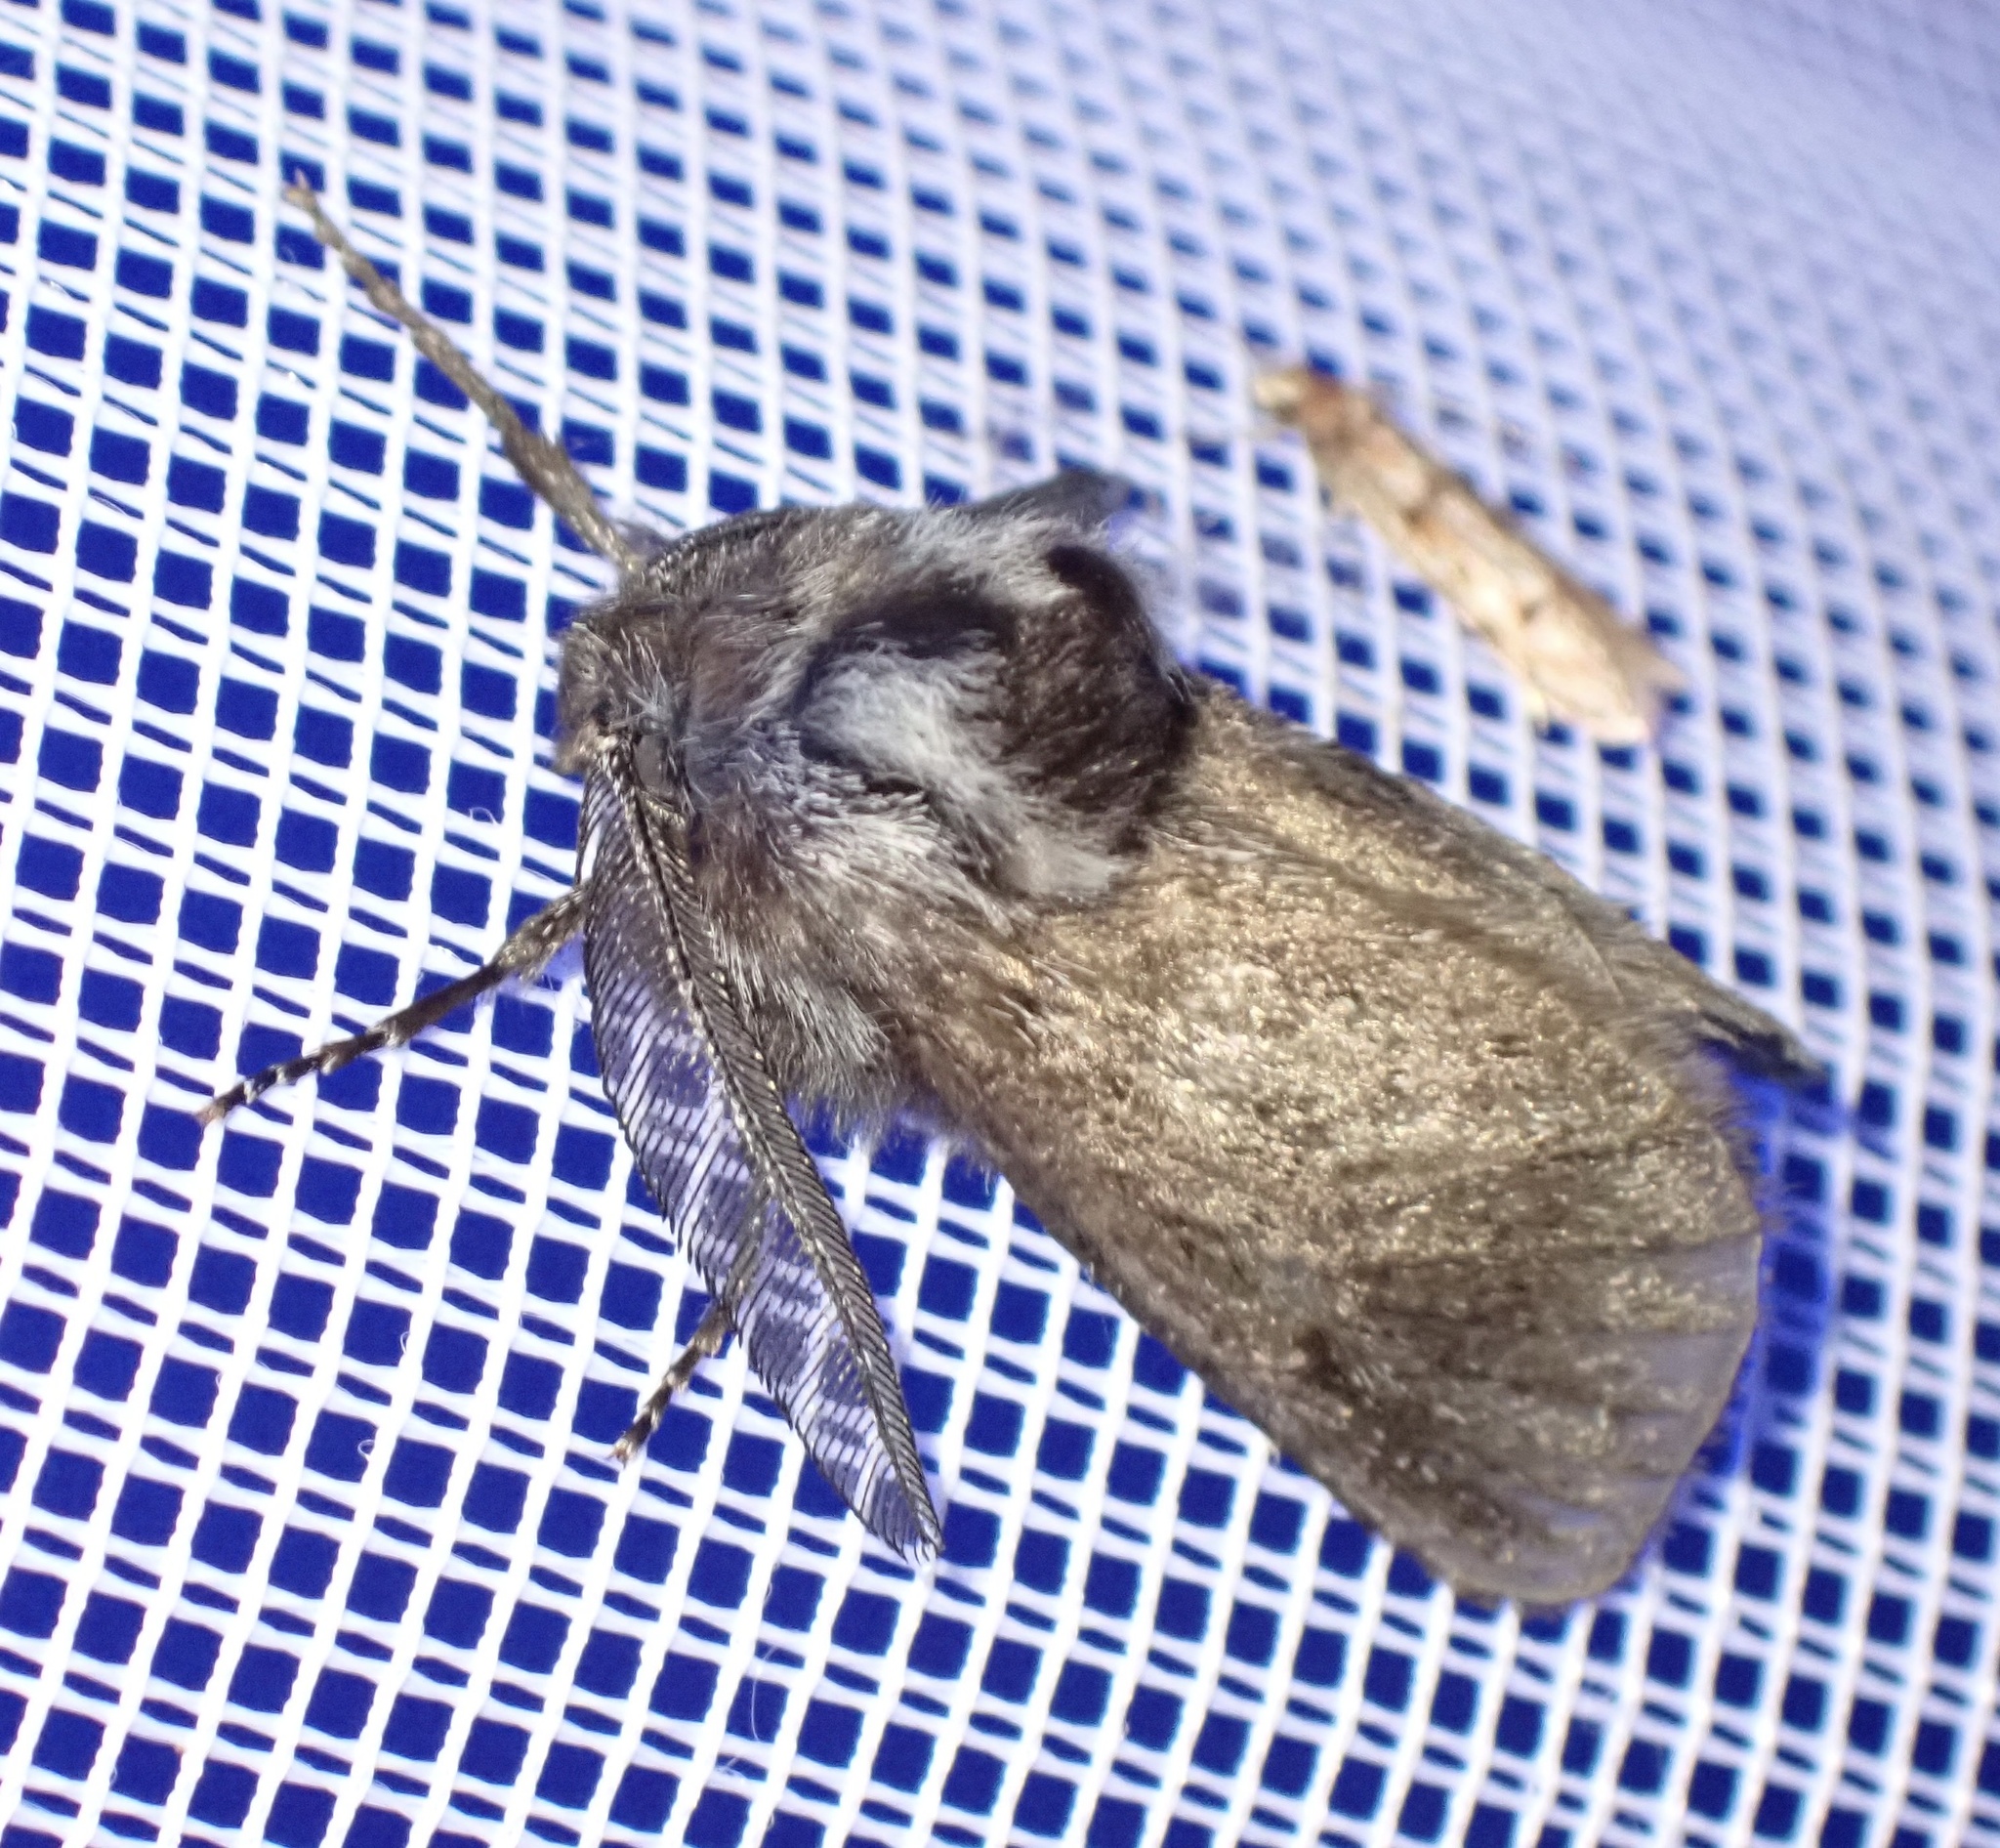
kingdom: Animalia
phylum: Arthropoda
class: Insecta
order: Lepidoptera
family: Cossidae
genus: Ptilomacra
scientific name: Ptilomacra senex
